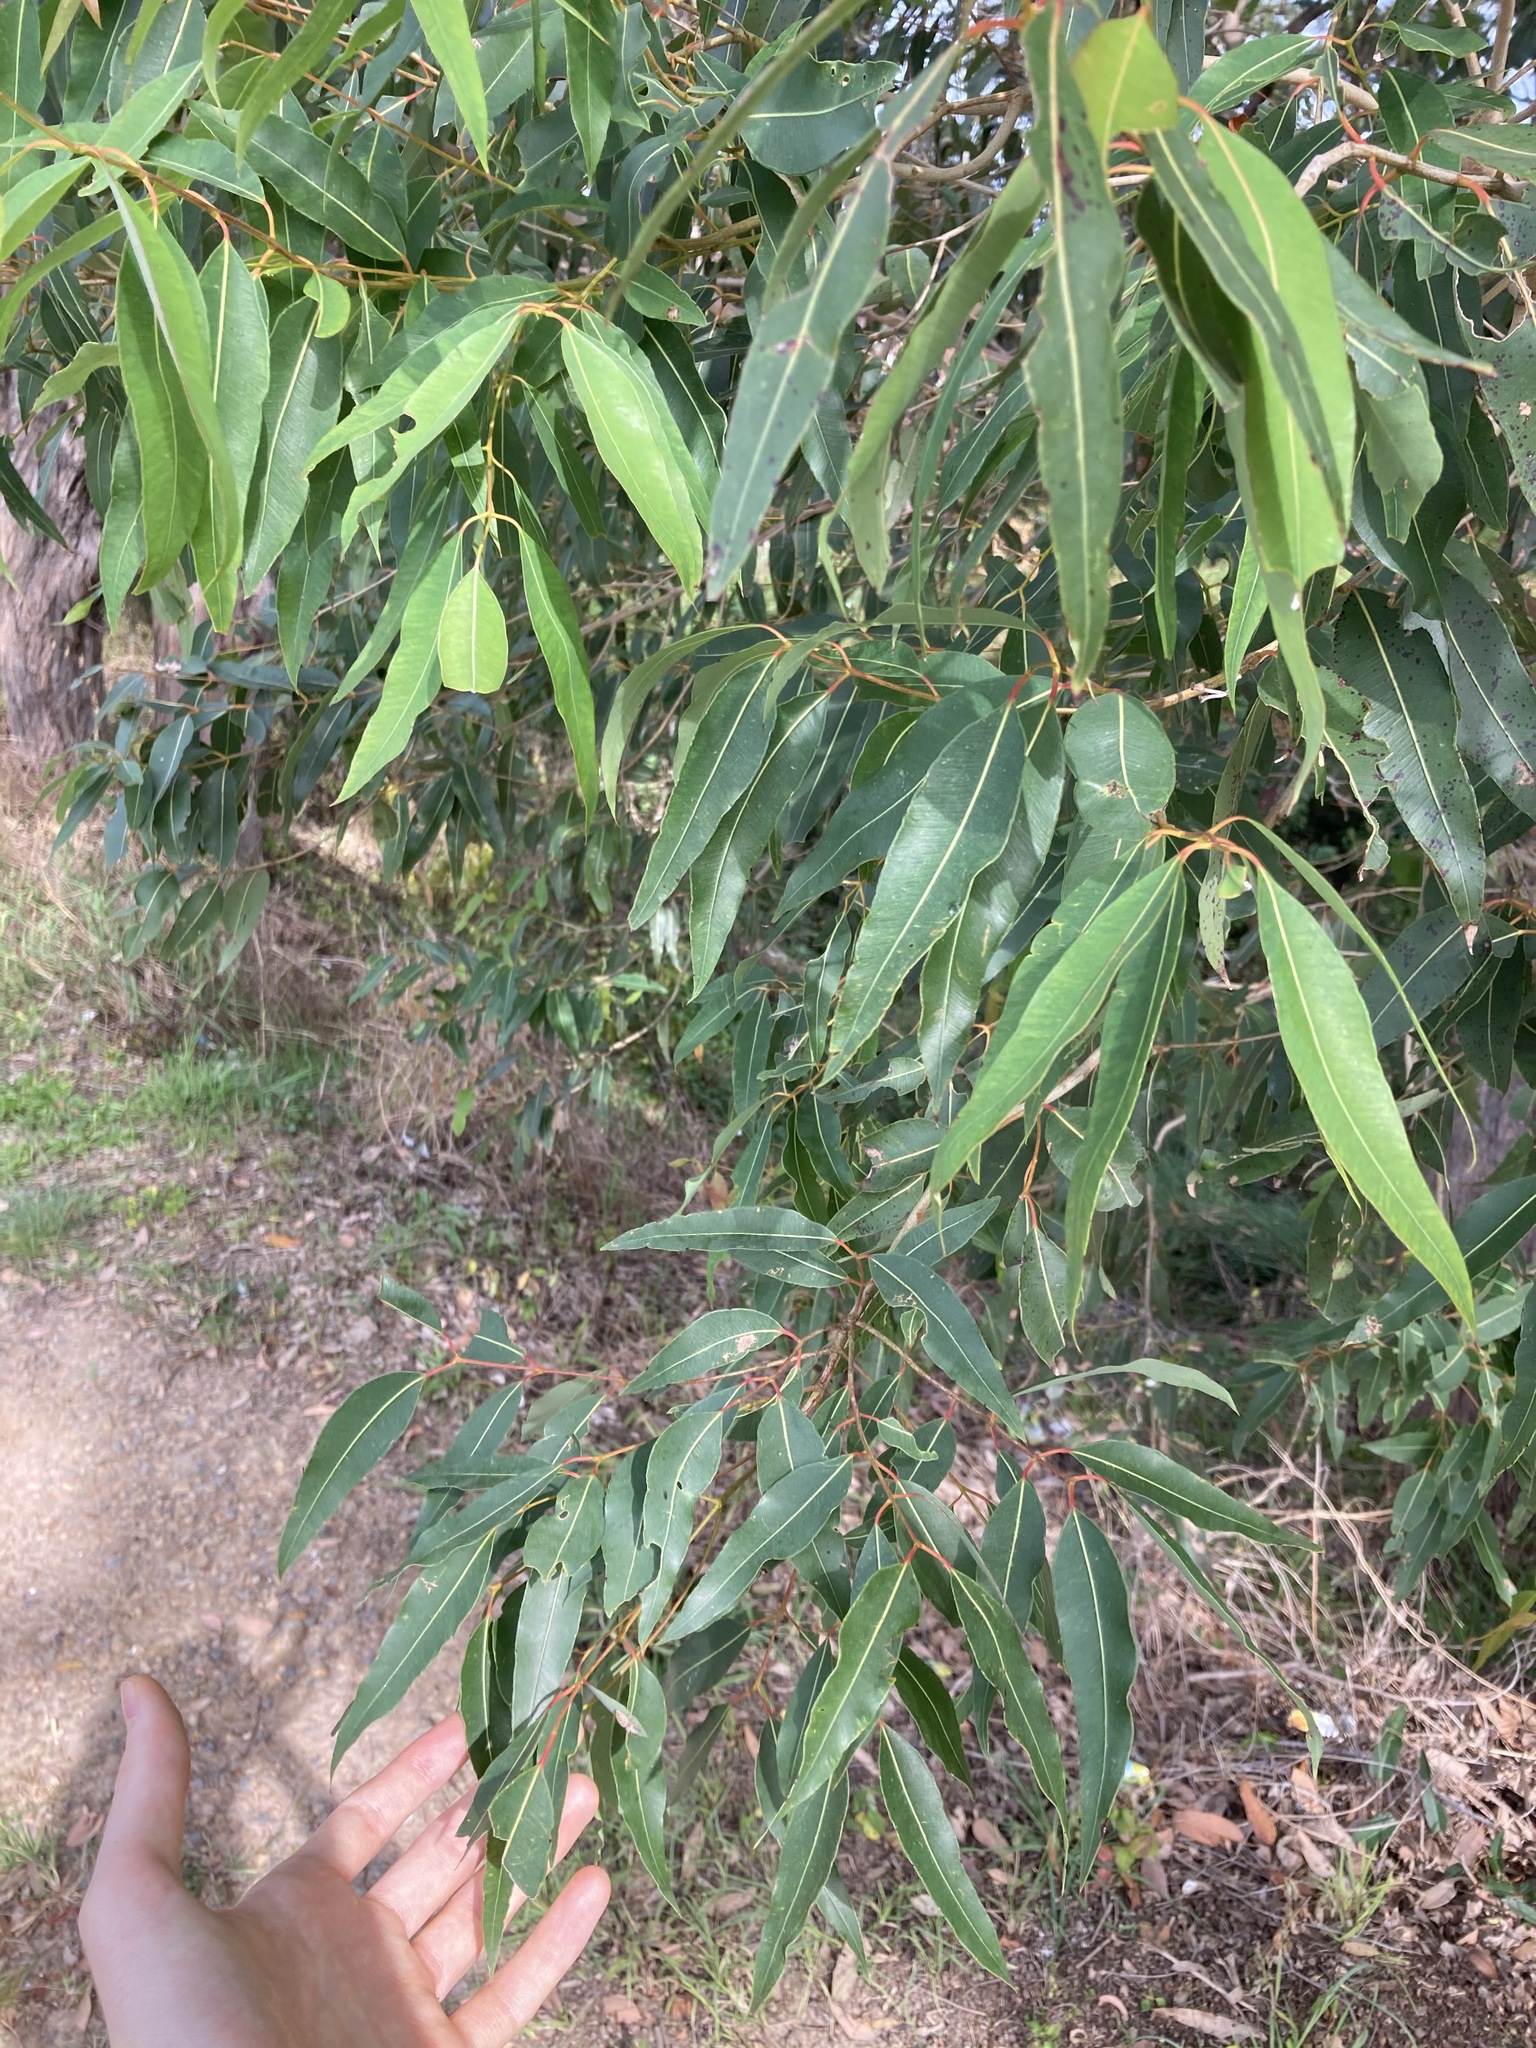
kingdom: Plantae
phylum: Tracheophyta
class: Magnoliopsida
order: Myrtales
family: Myrtaceae
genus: Angophora
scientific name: Angophora floribunda
